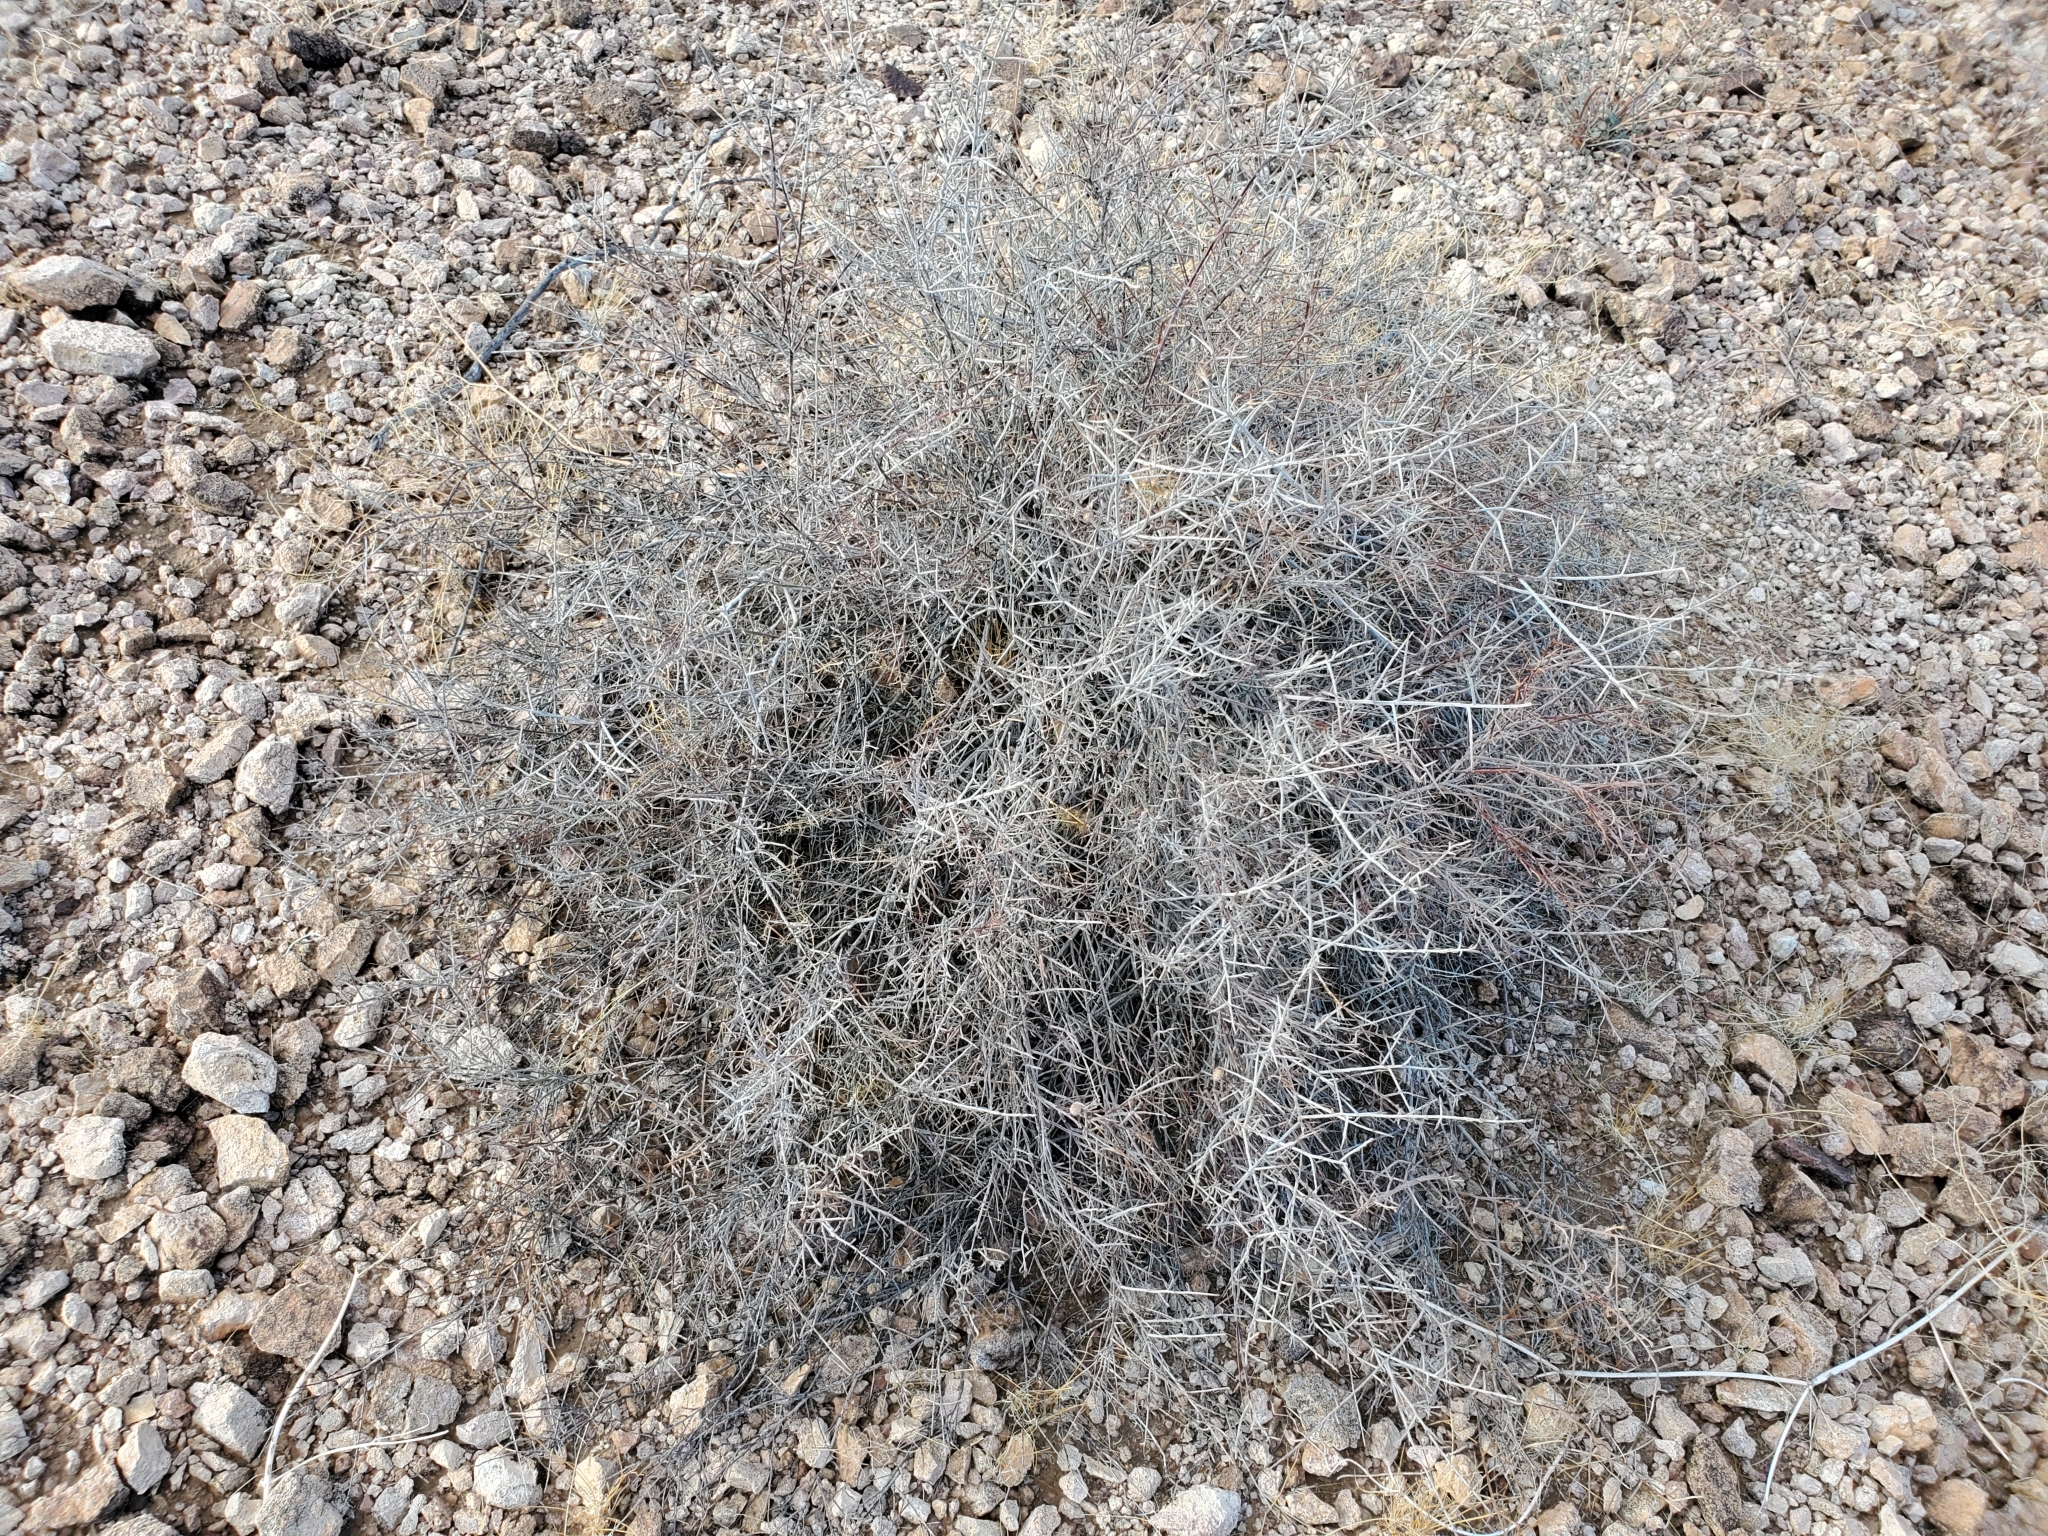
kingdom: Plantae
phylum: Tracheophyta
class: Magnoliopsida
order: Zygophyllales
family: Krameriaceae
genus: Krameria
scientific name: Krameria bicolor
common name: White ratany
